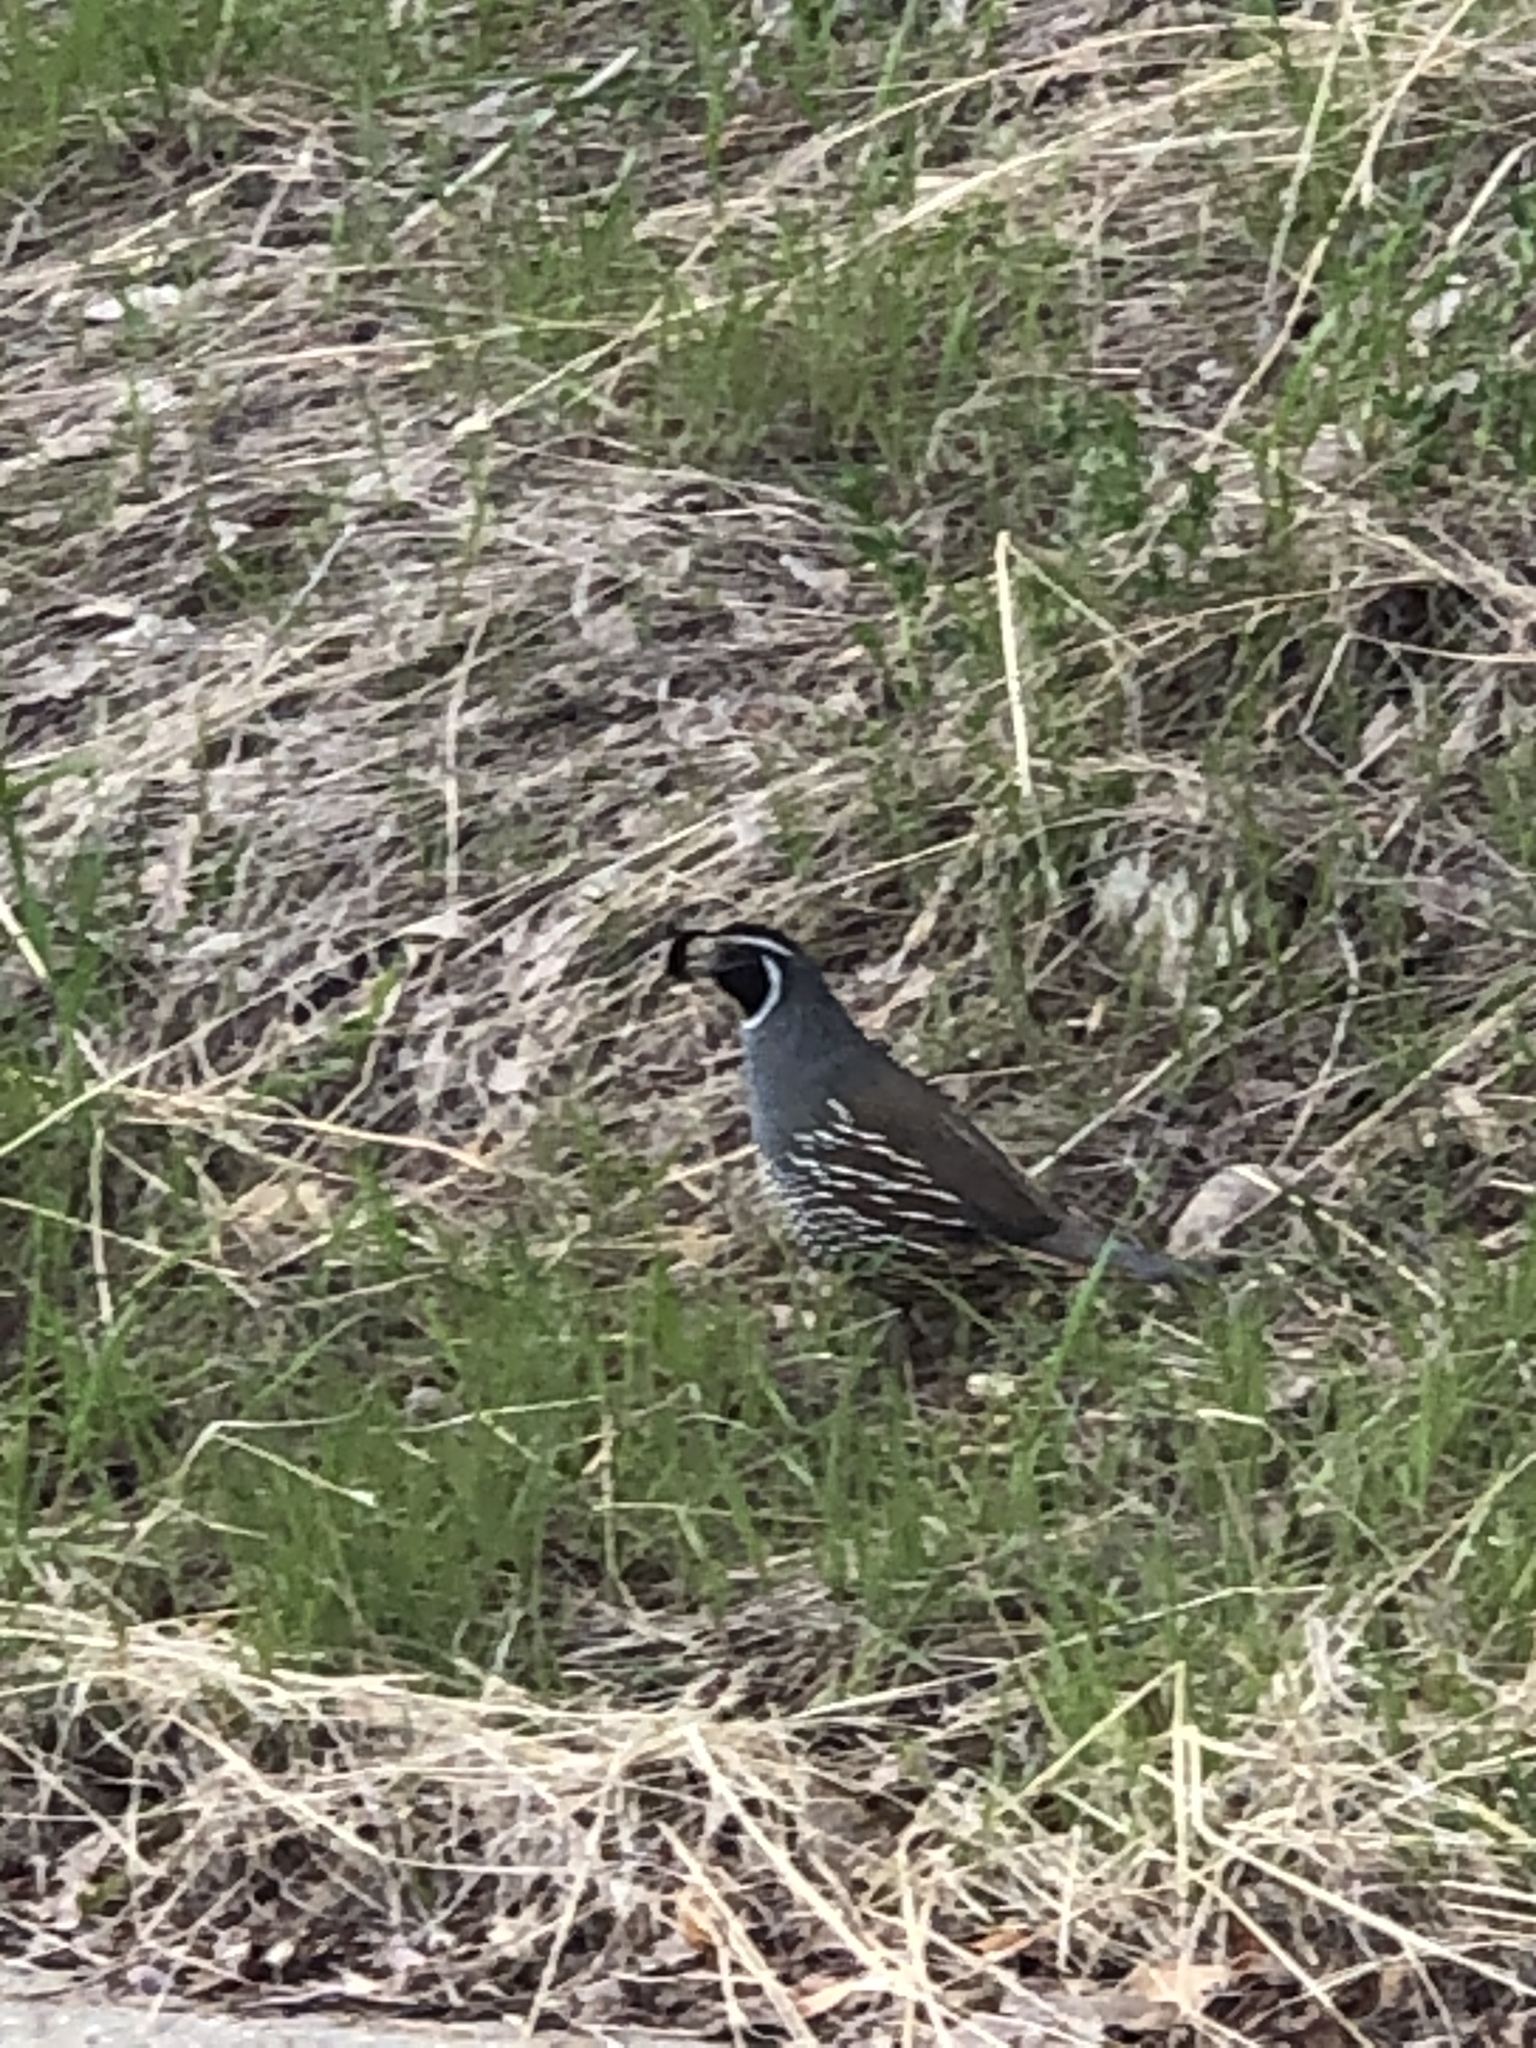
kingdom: Animalia
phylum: Chordata
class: Aves
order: Galliformes
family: Odontophoridae
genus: Callipepla
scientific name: Callipepla californica
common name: California quail
